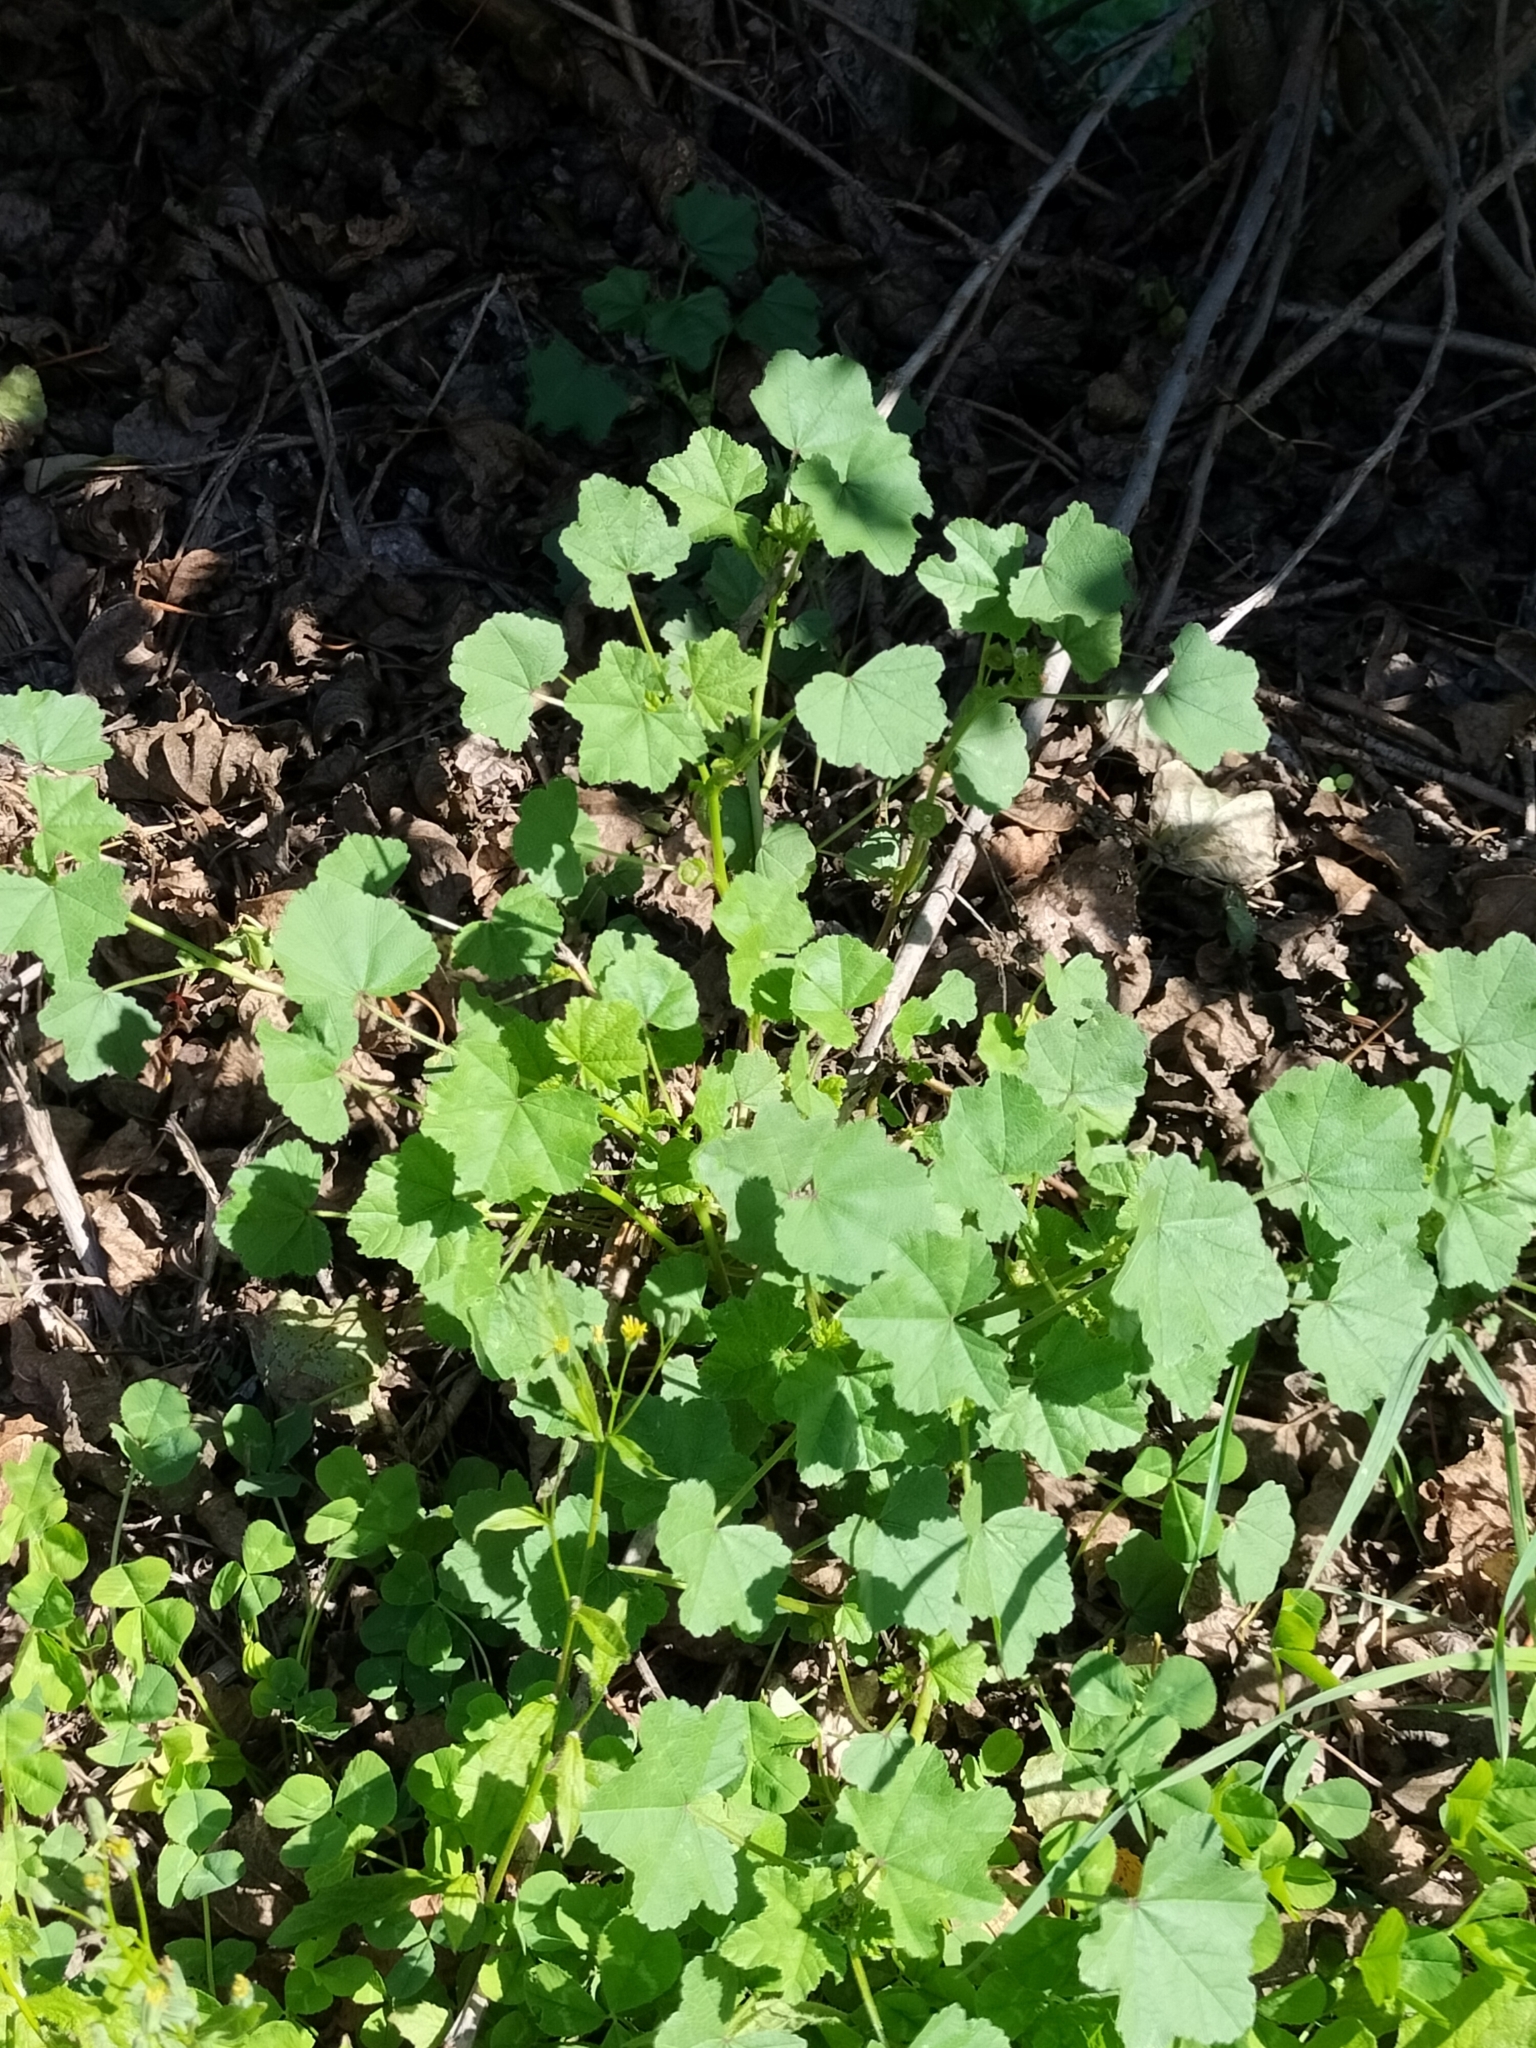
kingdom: Plantae
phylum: Tracheophyta
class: Magnoliopsida
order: Malvales
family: Malvaceae
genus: Malva
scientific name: Malva sylvestris
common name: Common mallow
